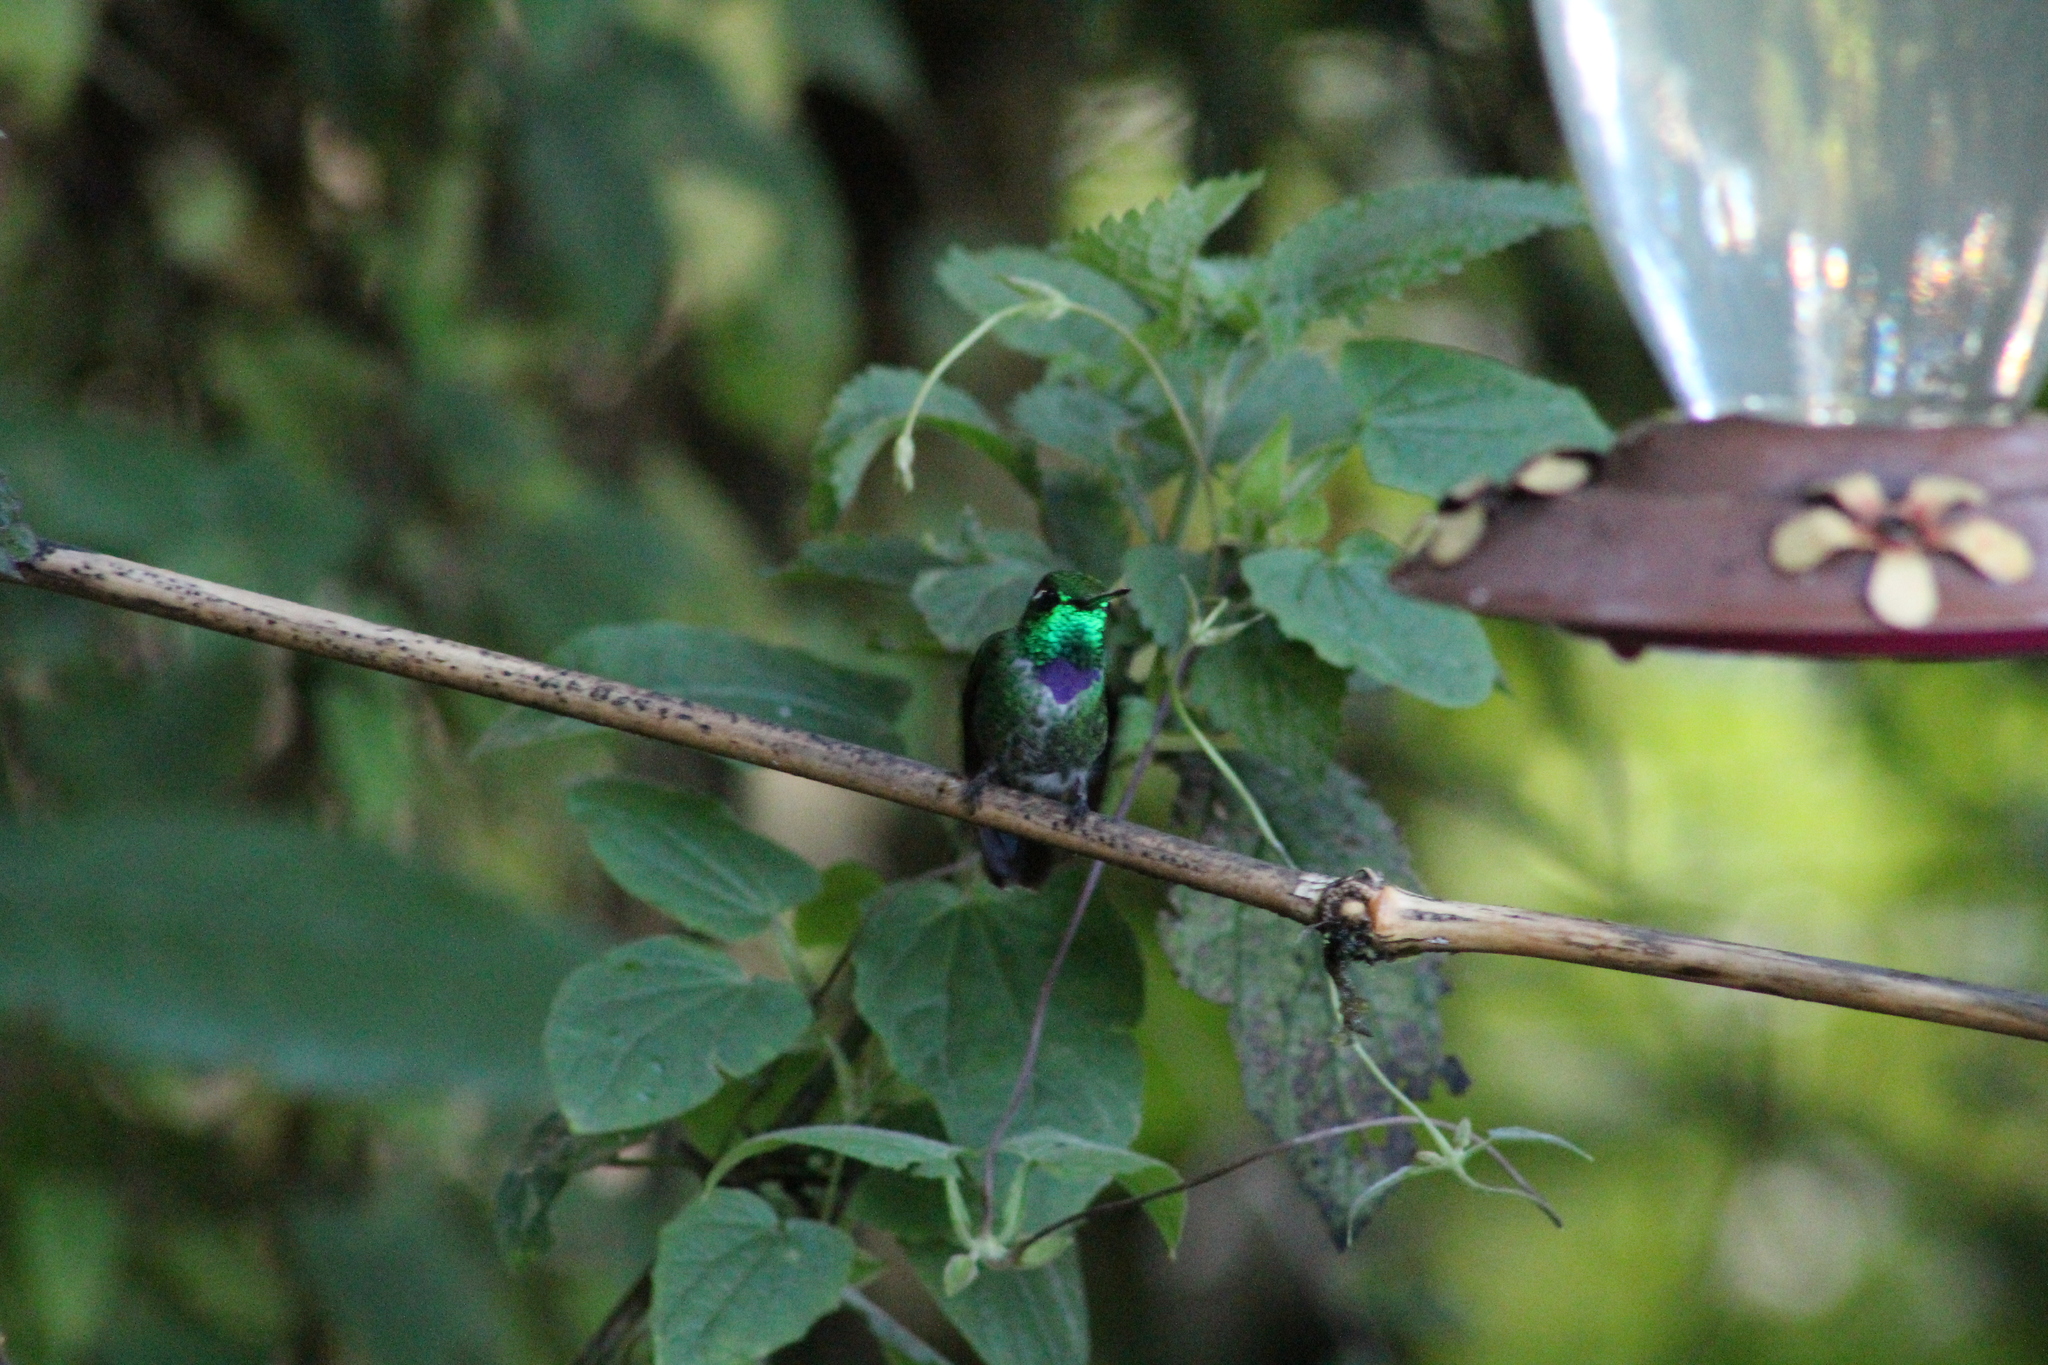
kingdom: Animalia
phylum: Chordata
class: Aves
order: Apodiformes
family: Trochilidae
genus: Urosticte
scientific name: Urosticte benjamini
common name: Purple-bibbed whitetip
